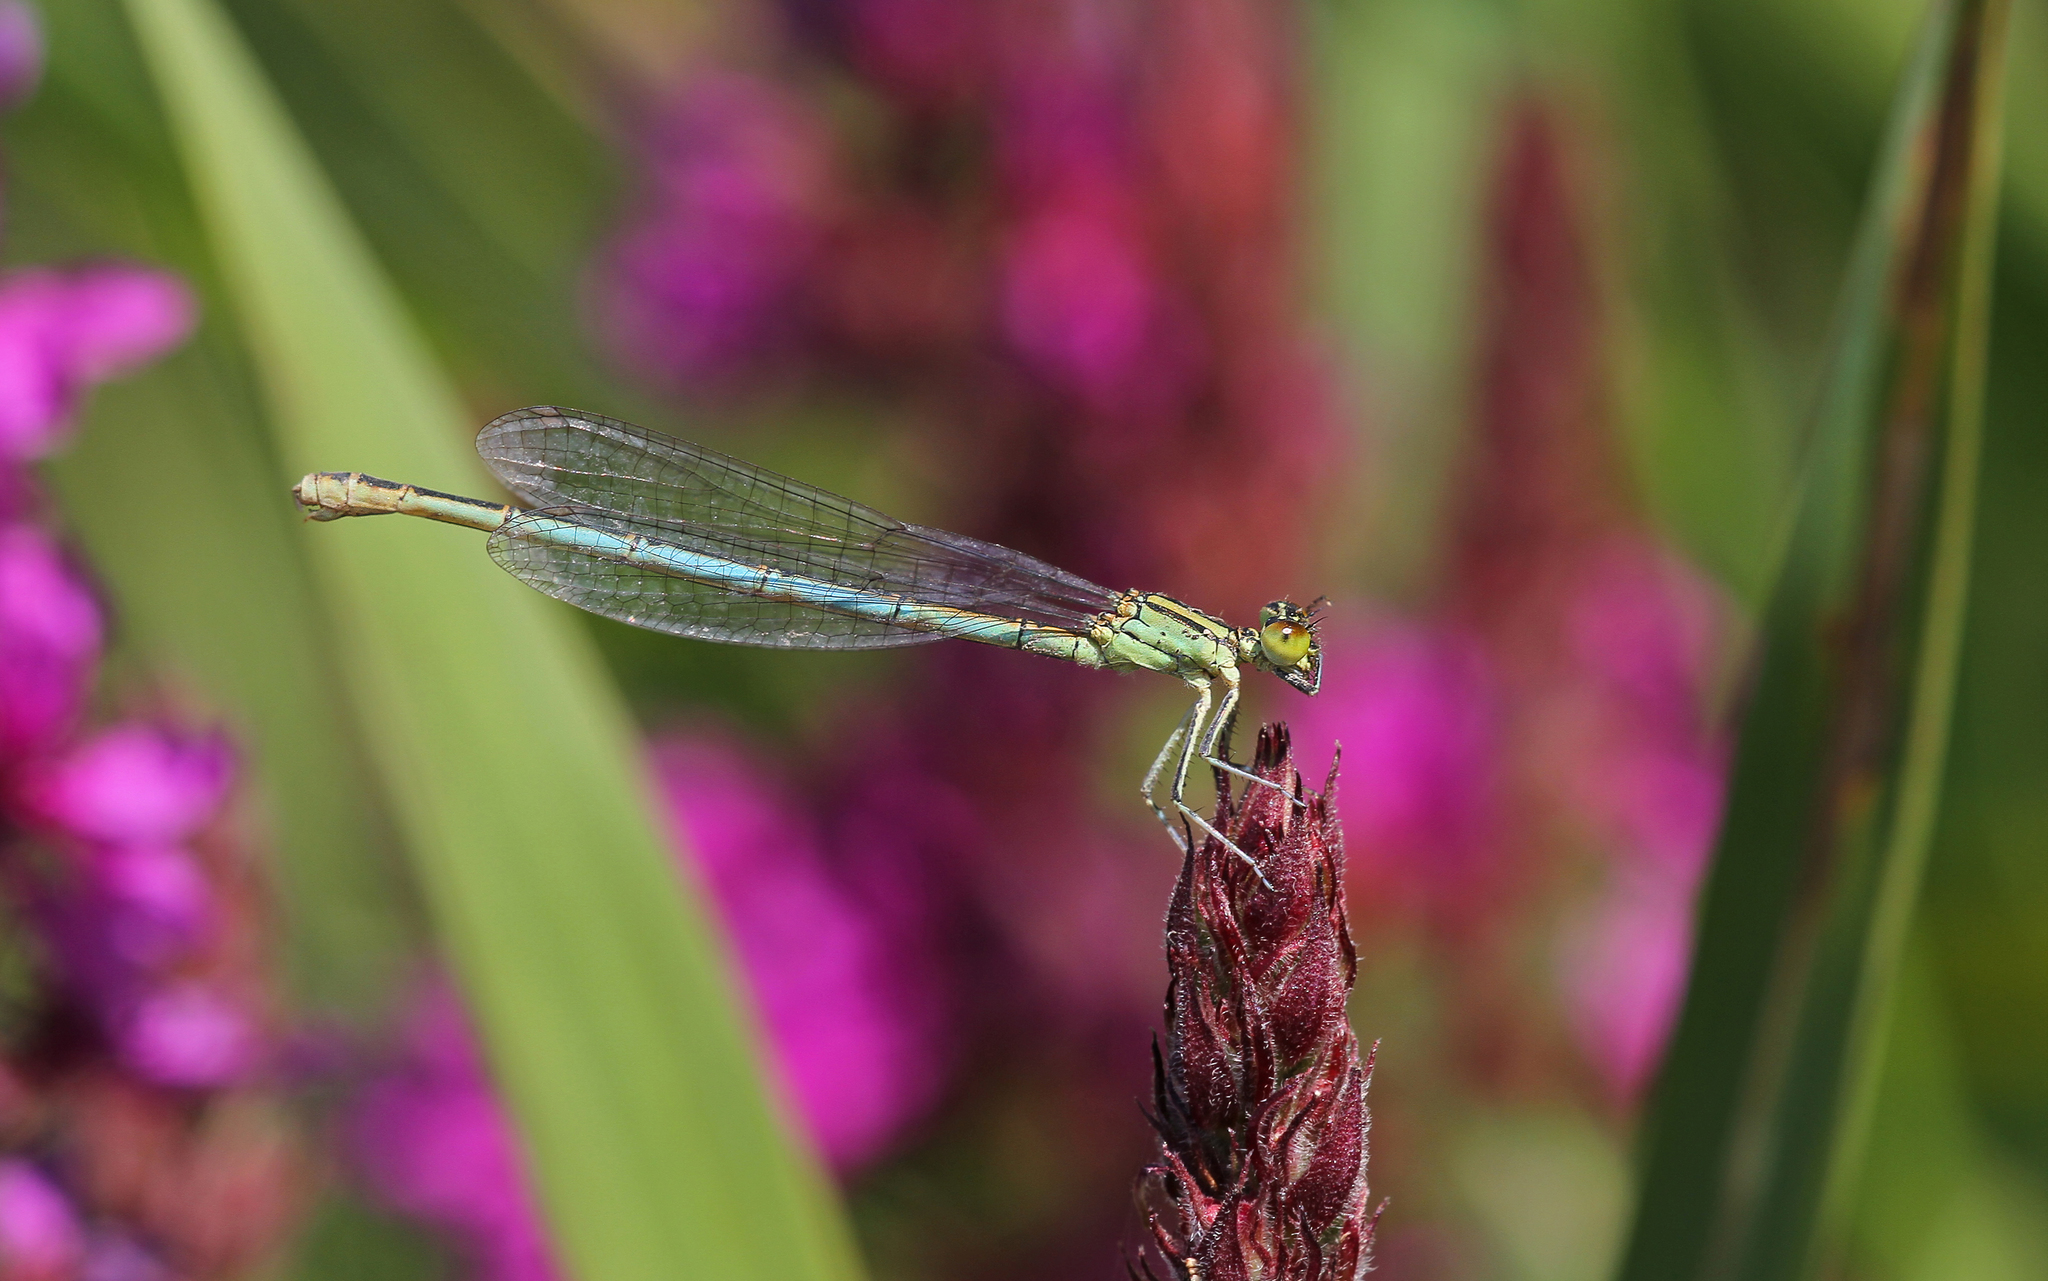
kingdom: Animalia
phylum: Arthropoda
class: Insecta
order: Odonata
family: Coenagrionidae
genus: Erythromma
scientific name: Erythromma lindenii
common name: Blue-eye
